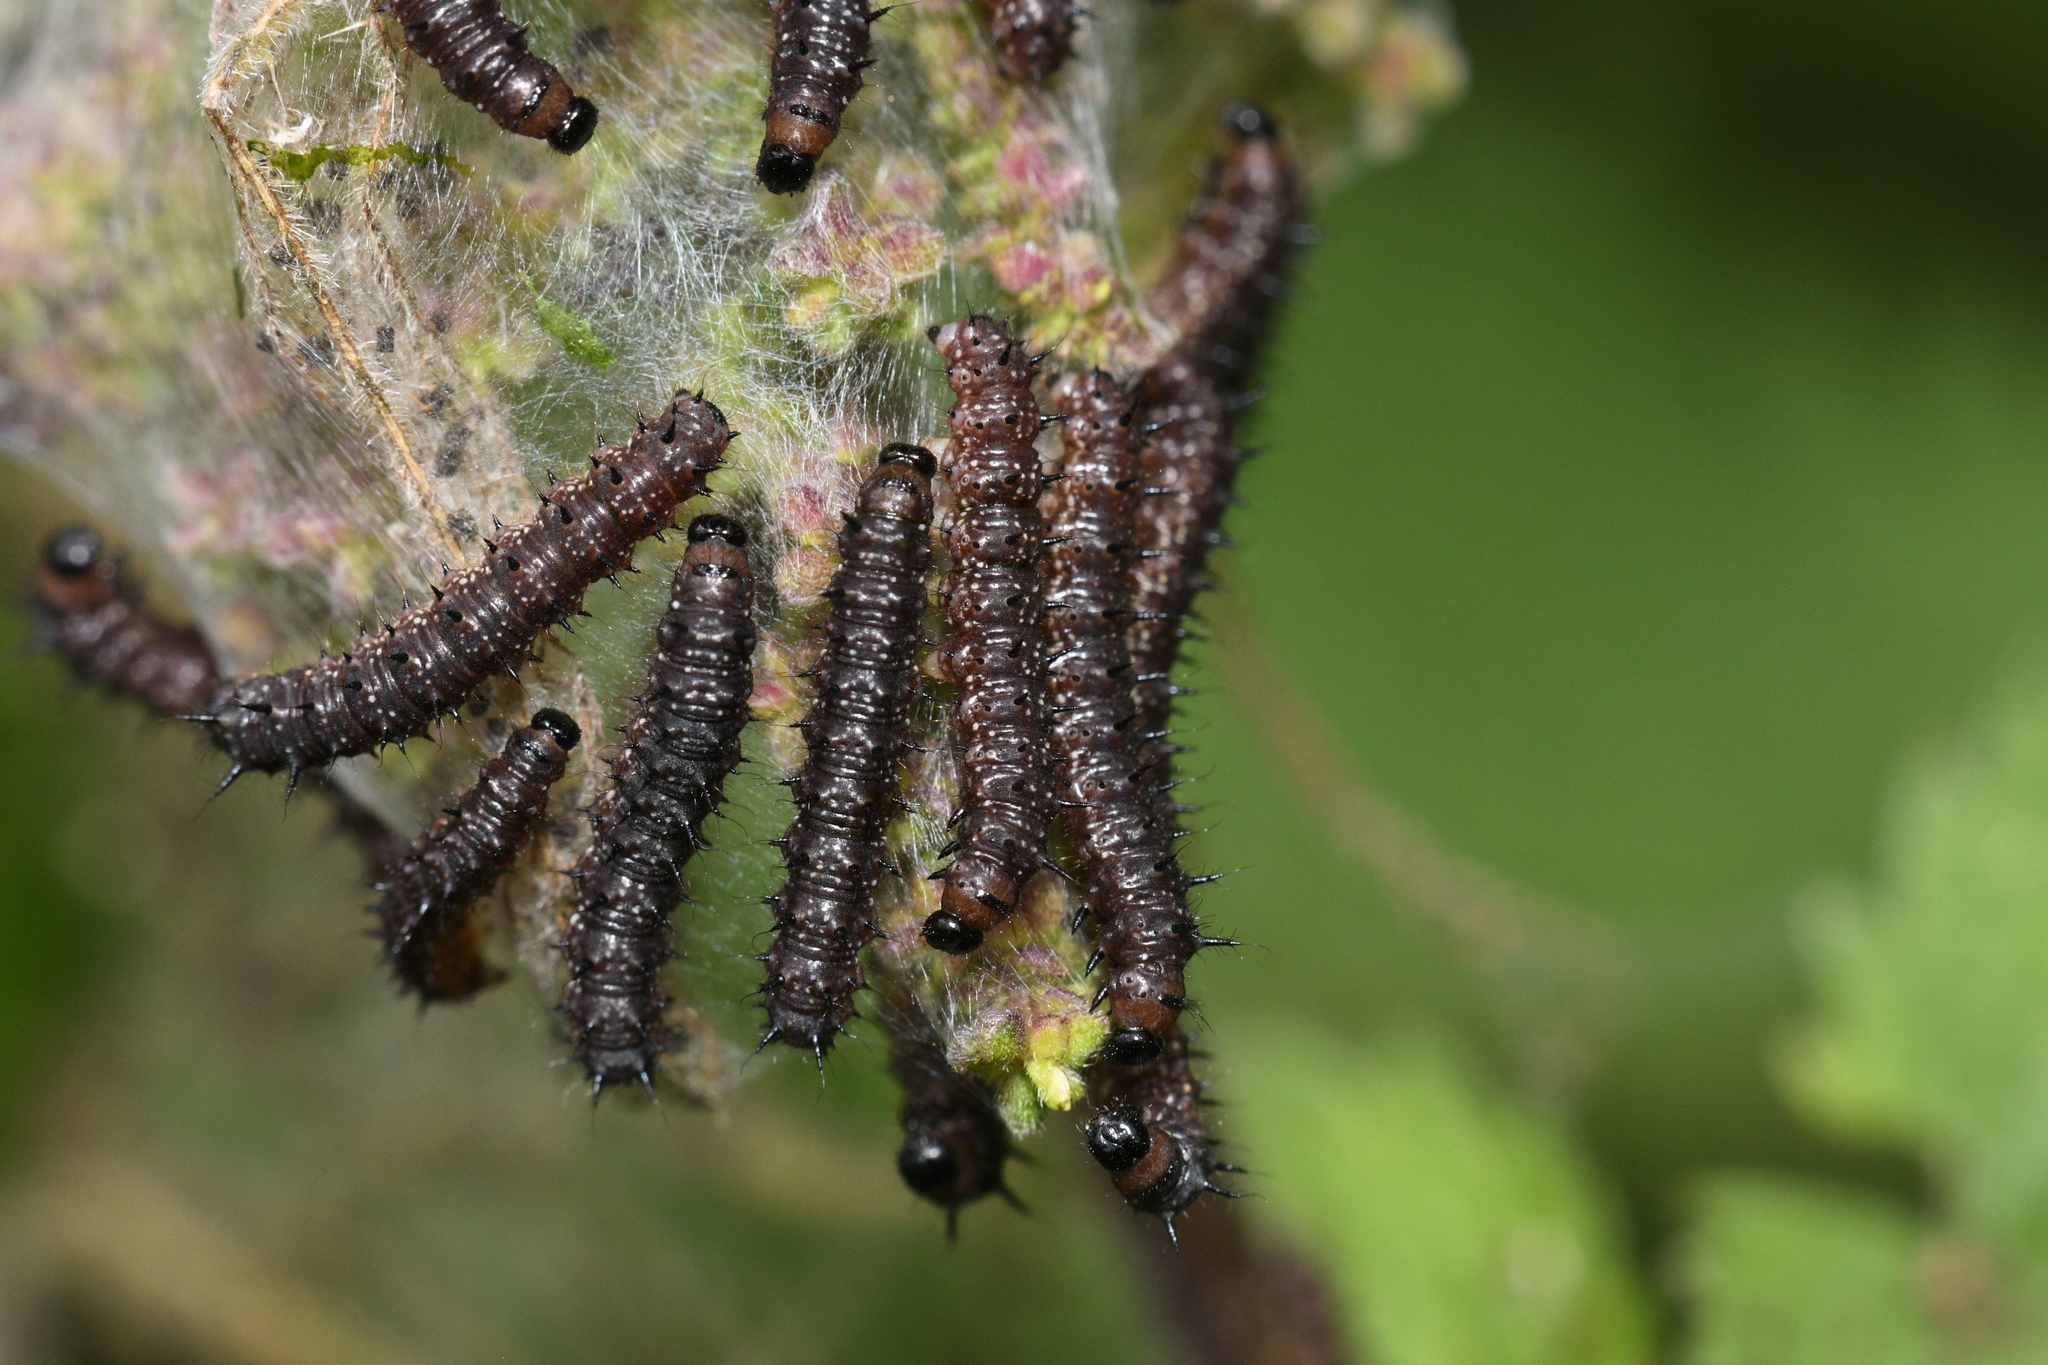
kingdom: Animalia
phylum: Arthropoda
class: Insecta
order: Lepidoptera
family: Nymphalidae
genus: Aglais
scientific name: Aglais io
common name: Peacock
